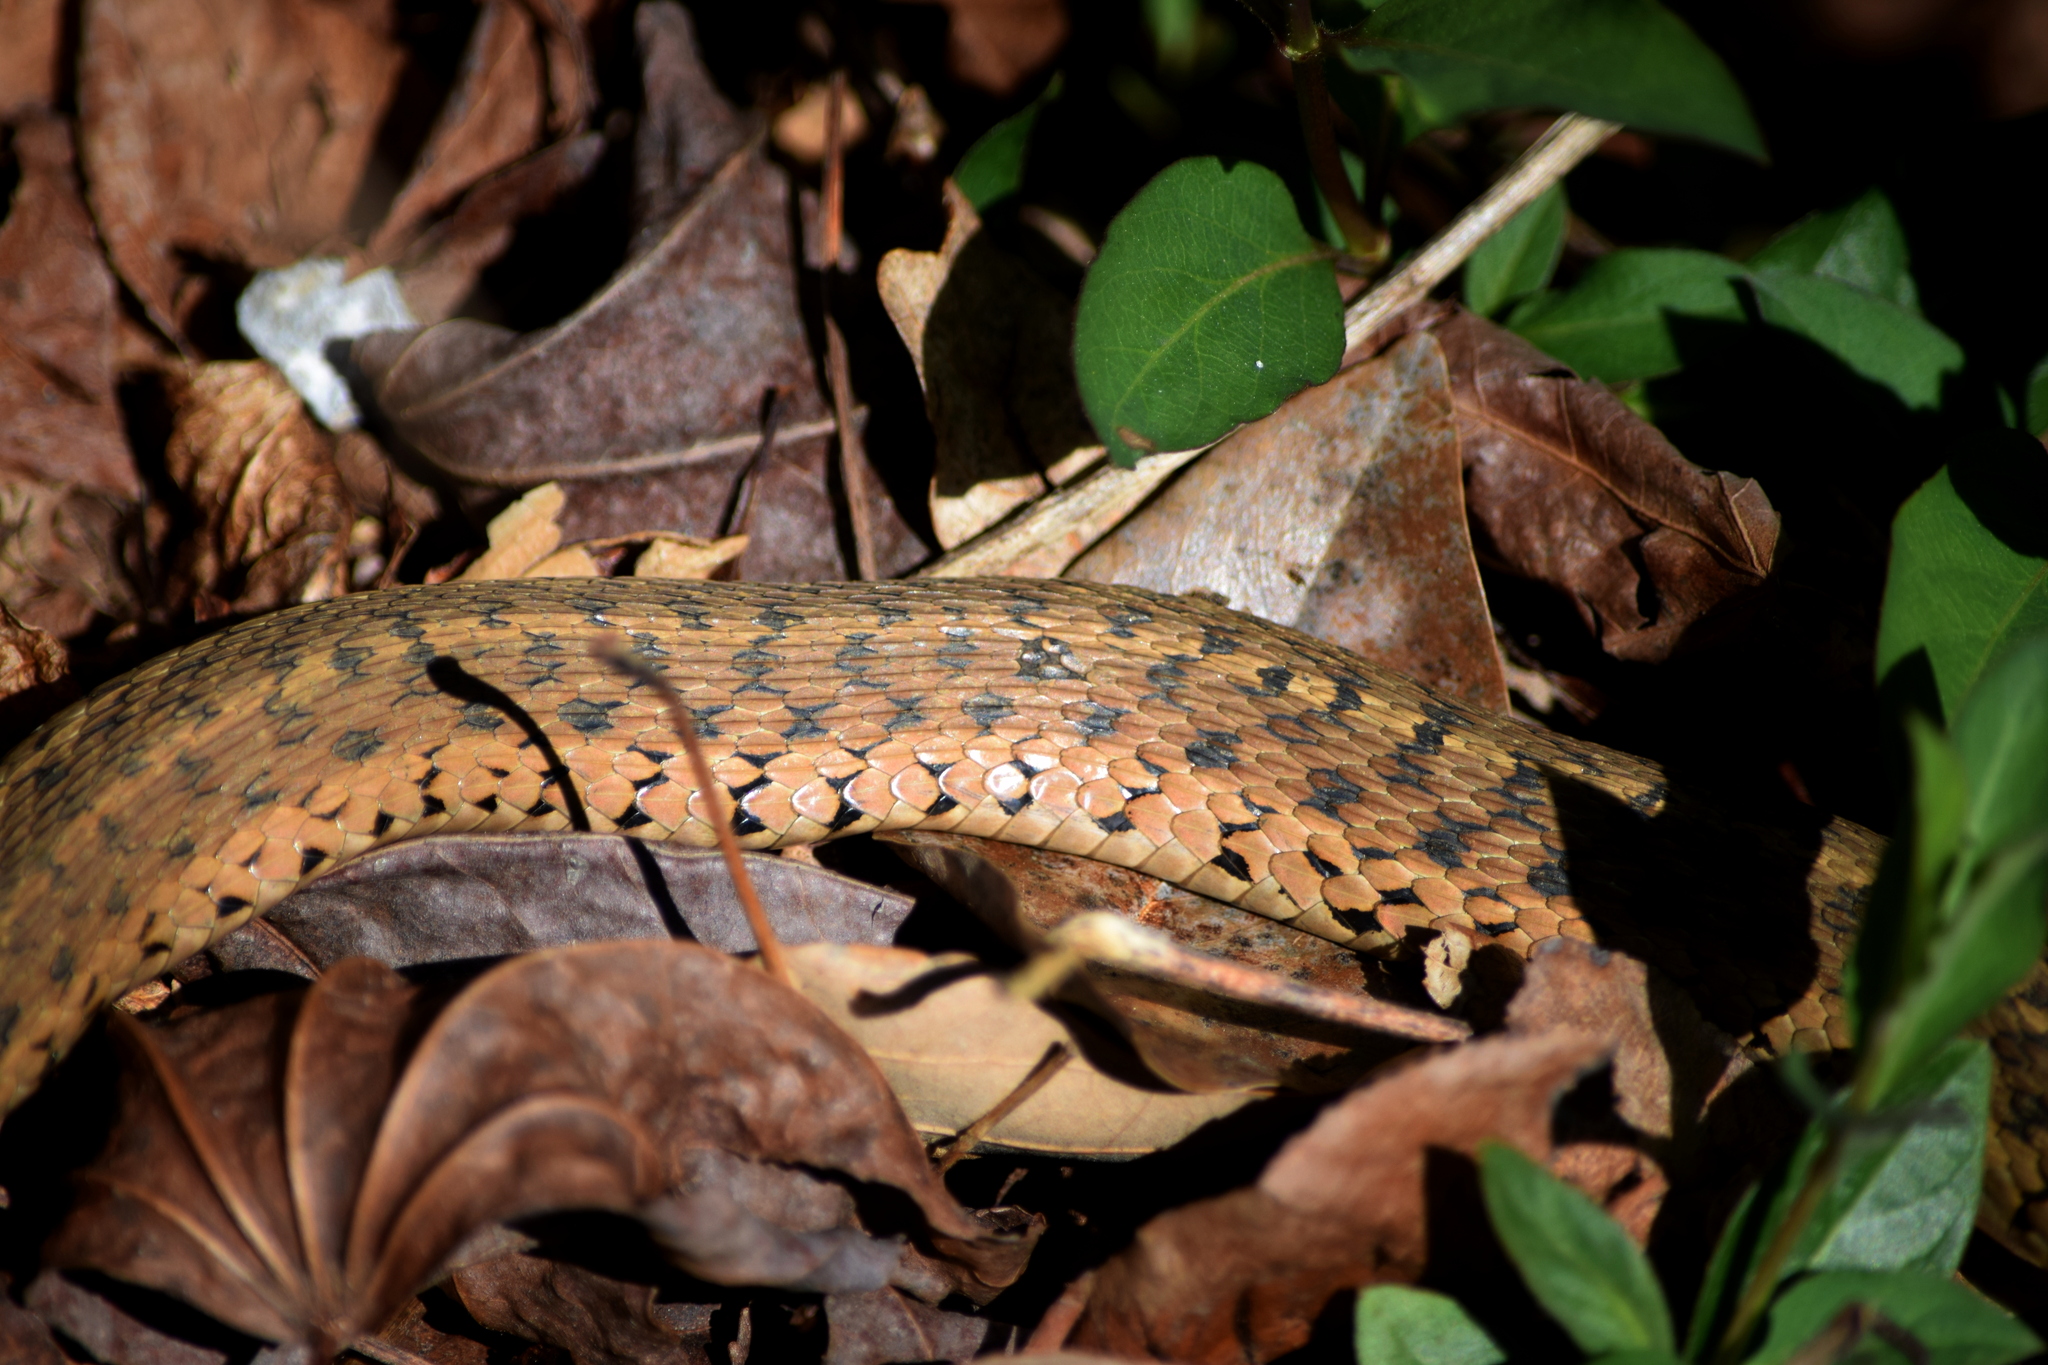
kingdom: Animalia
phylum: Chordata
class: Squamata
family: Colubridae
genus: Thamnophis
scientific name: Thamnophis sirtalis
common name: Common garter snake
